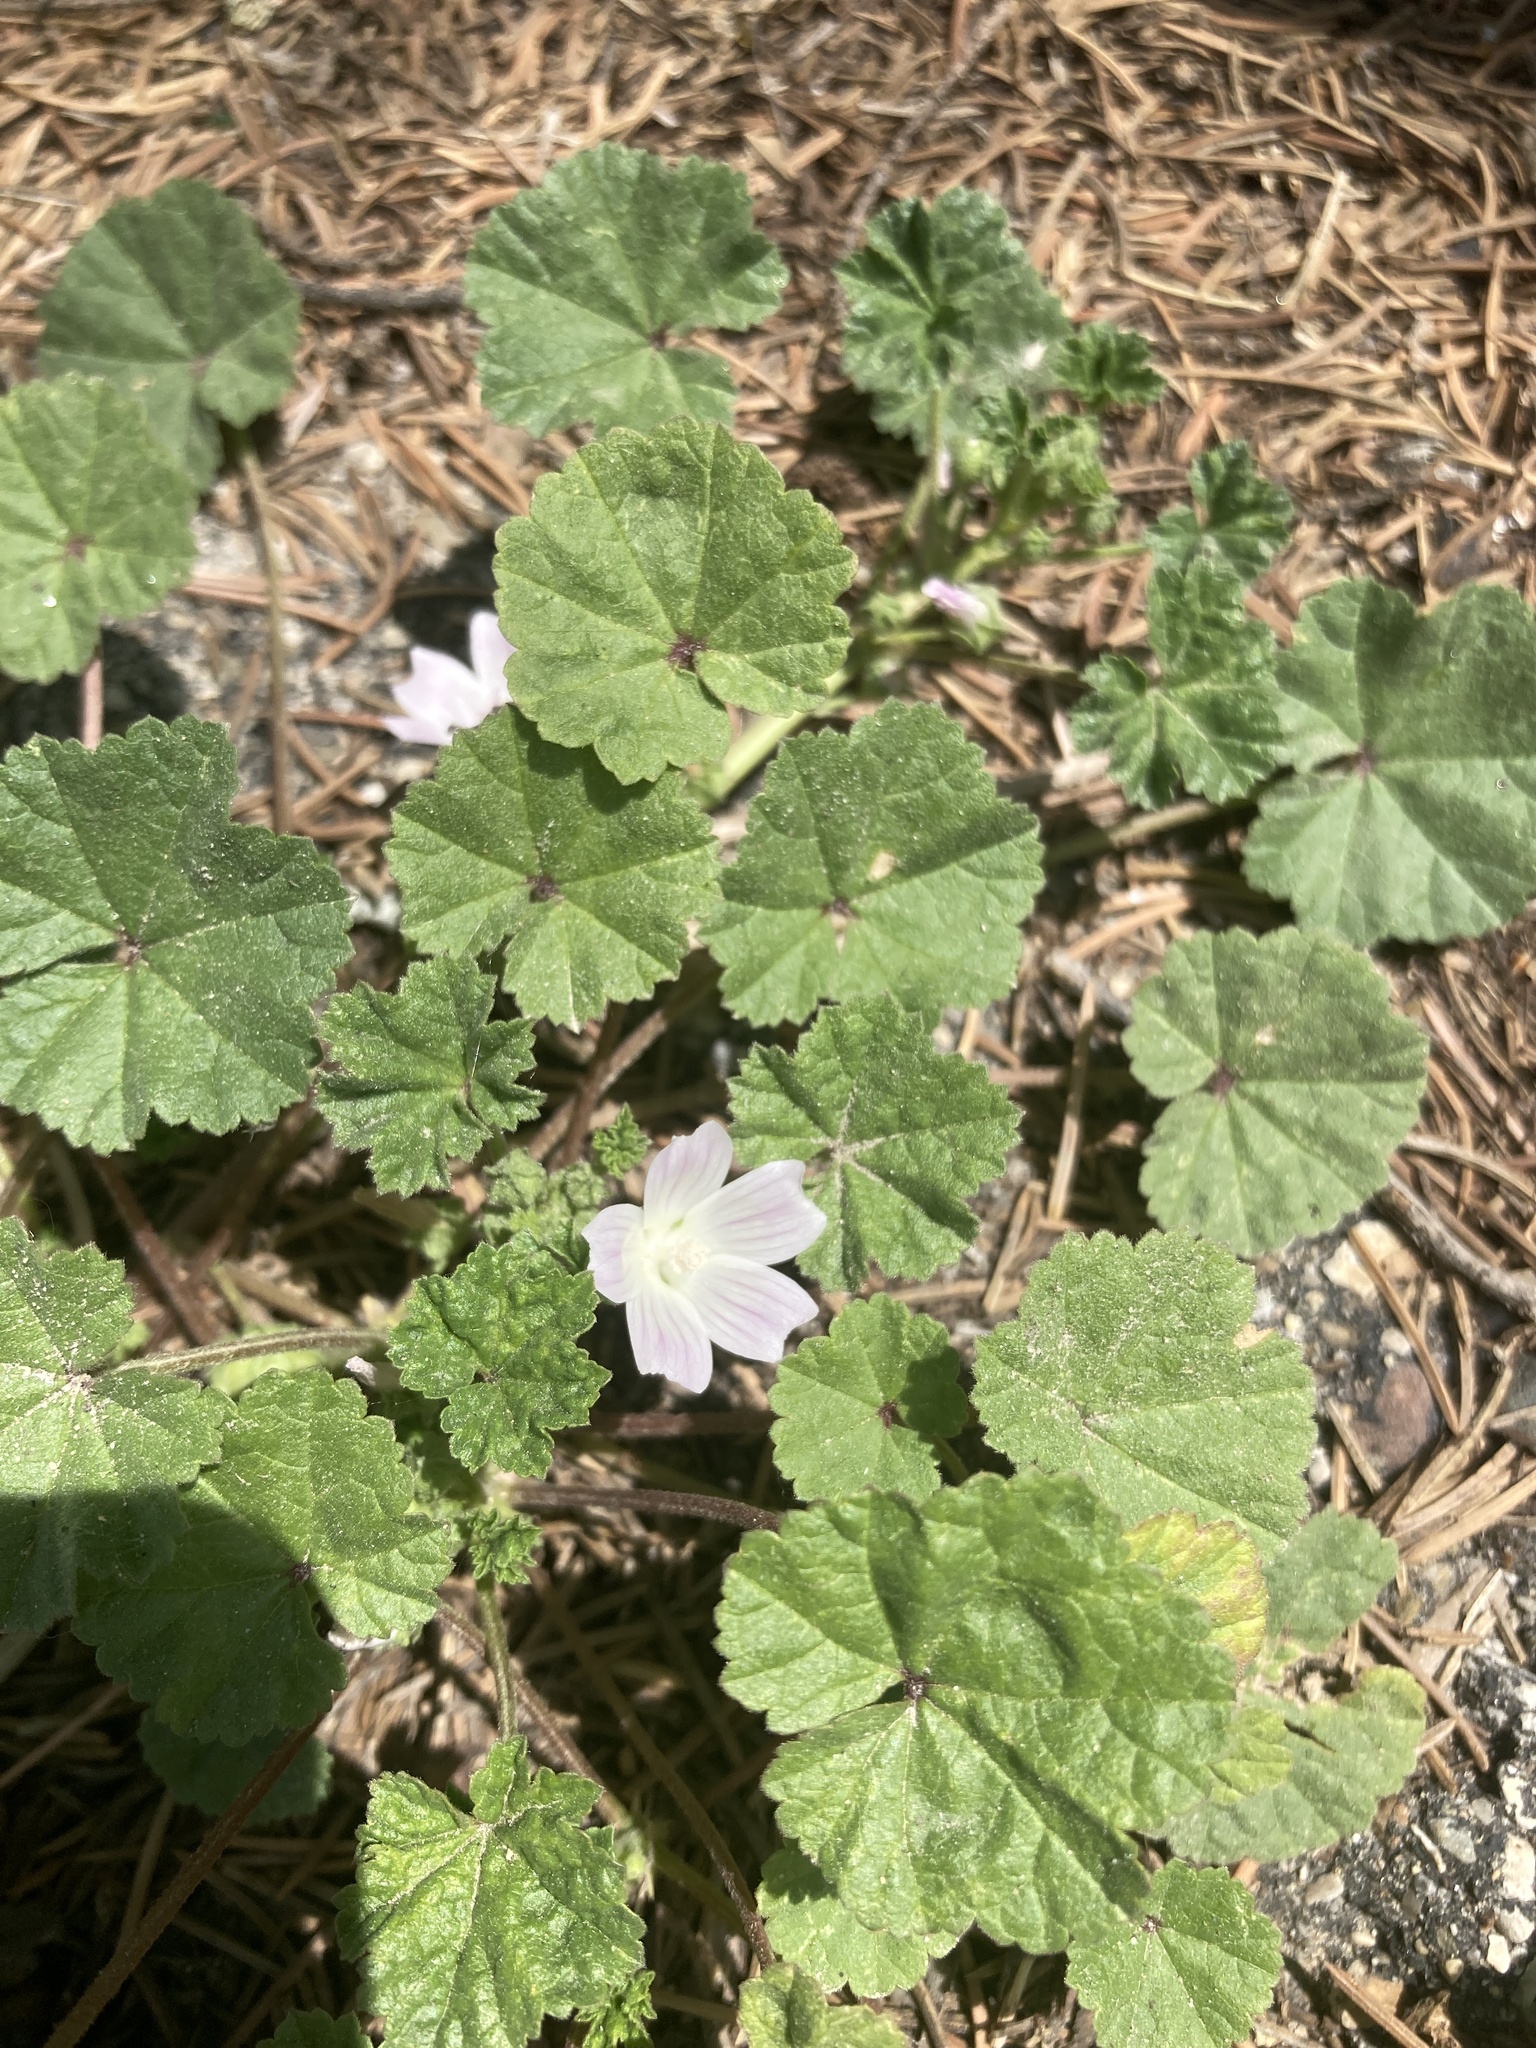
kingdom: Plantae
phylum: Tracheophyta
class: Magnoliopsida
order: Malvales
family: Malvaceae
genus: Malva
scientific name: Malva neglecta
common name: Common mallow
